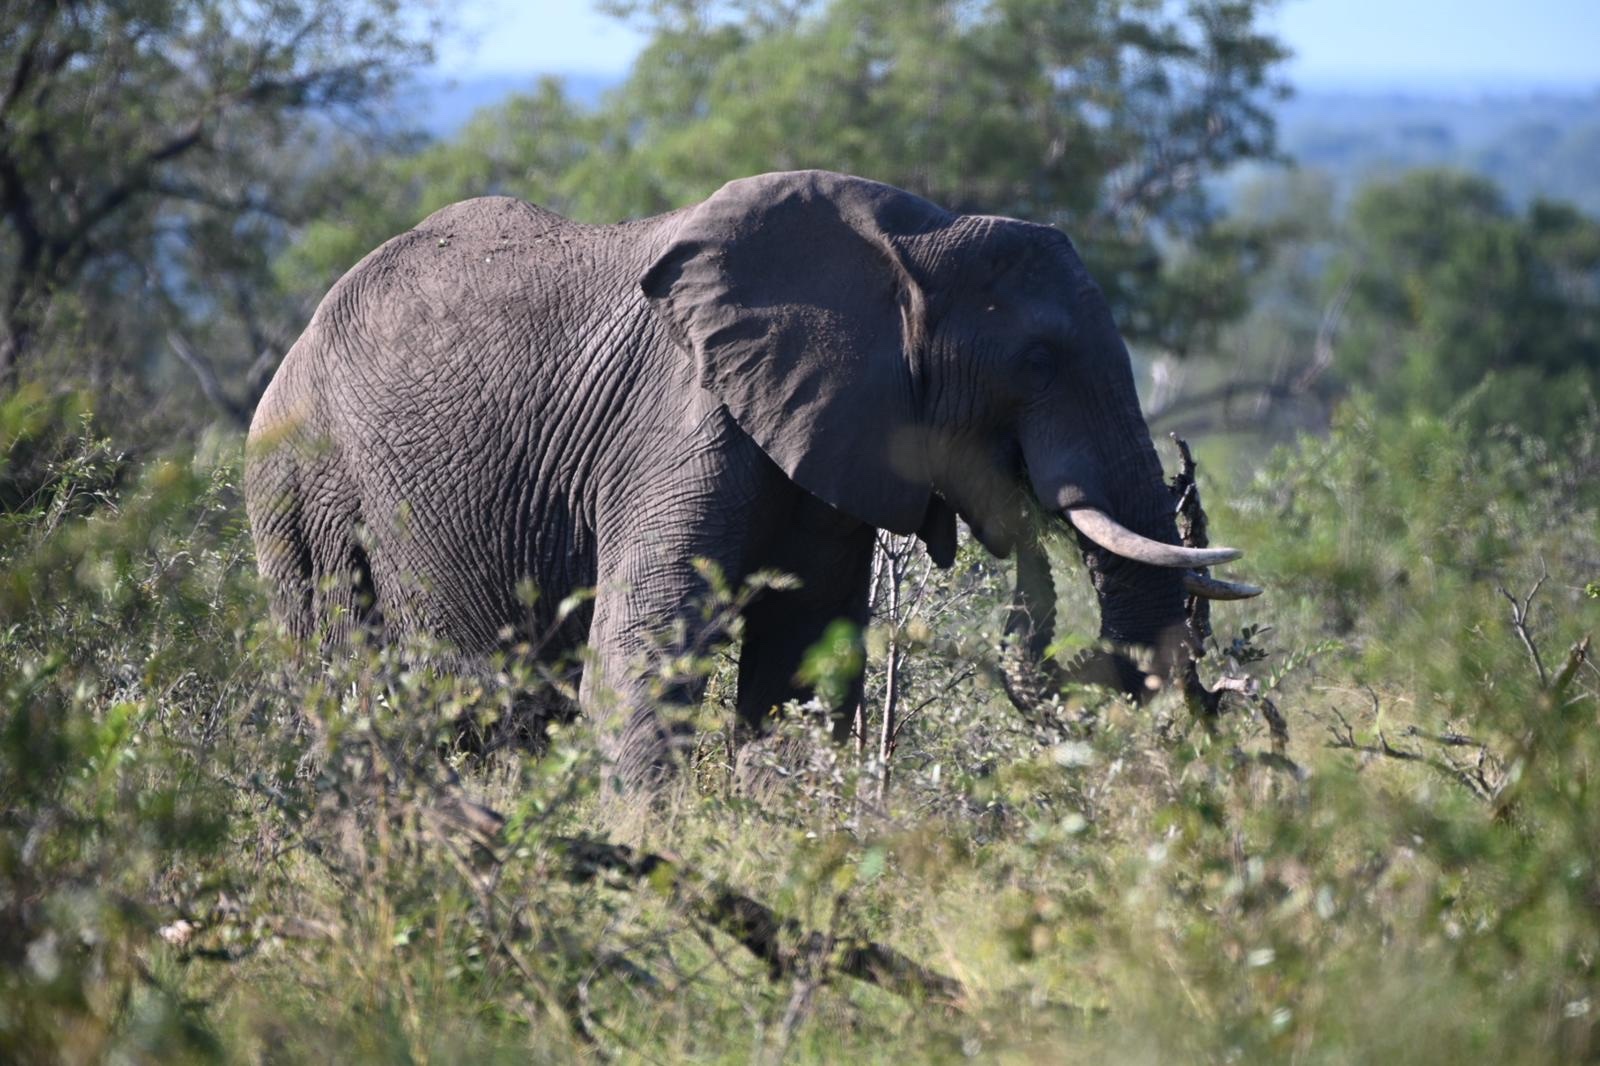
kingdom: Animalia
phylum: Chordata
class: Mammalia
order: Proboscidea
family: Elephantidae
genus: Loxodonta
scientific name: Loxodonta africana
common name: African elephant
